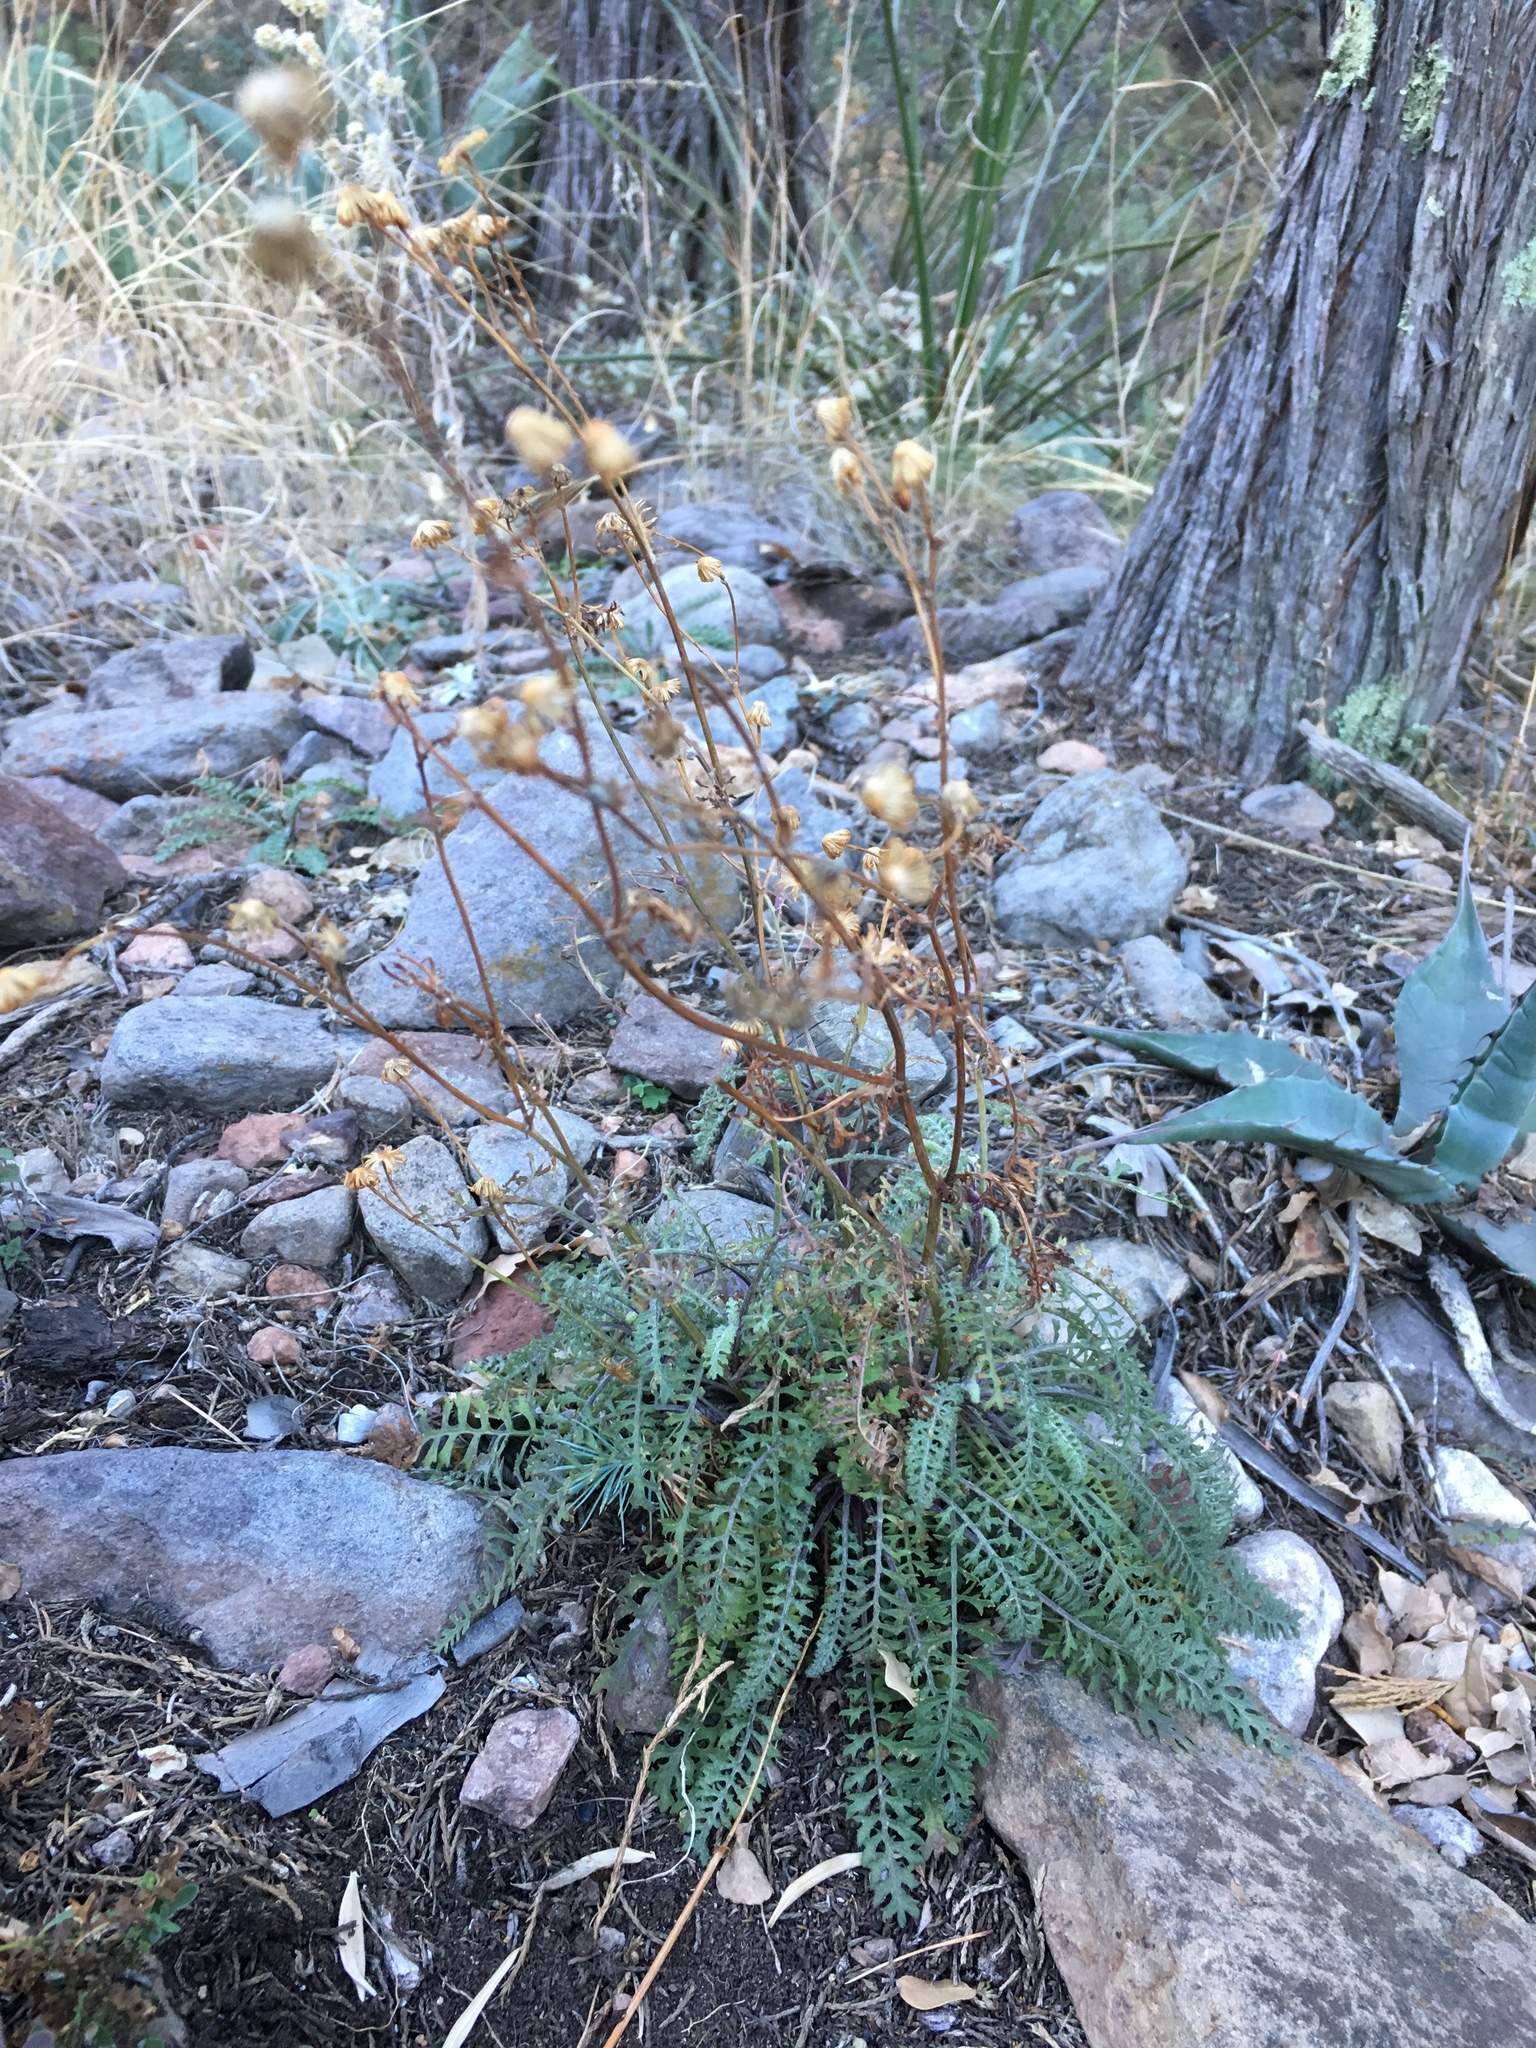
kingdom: Plantae
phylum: Tracheophyta
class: Magnoliopsida
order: Asterales
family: Asteraceae
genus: Packera
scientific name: Packera millelobata
